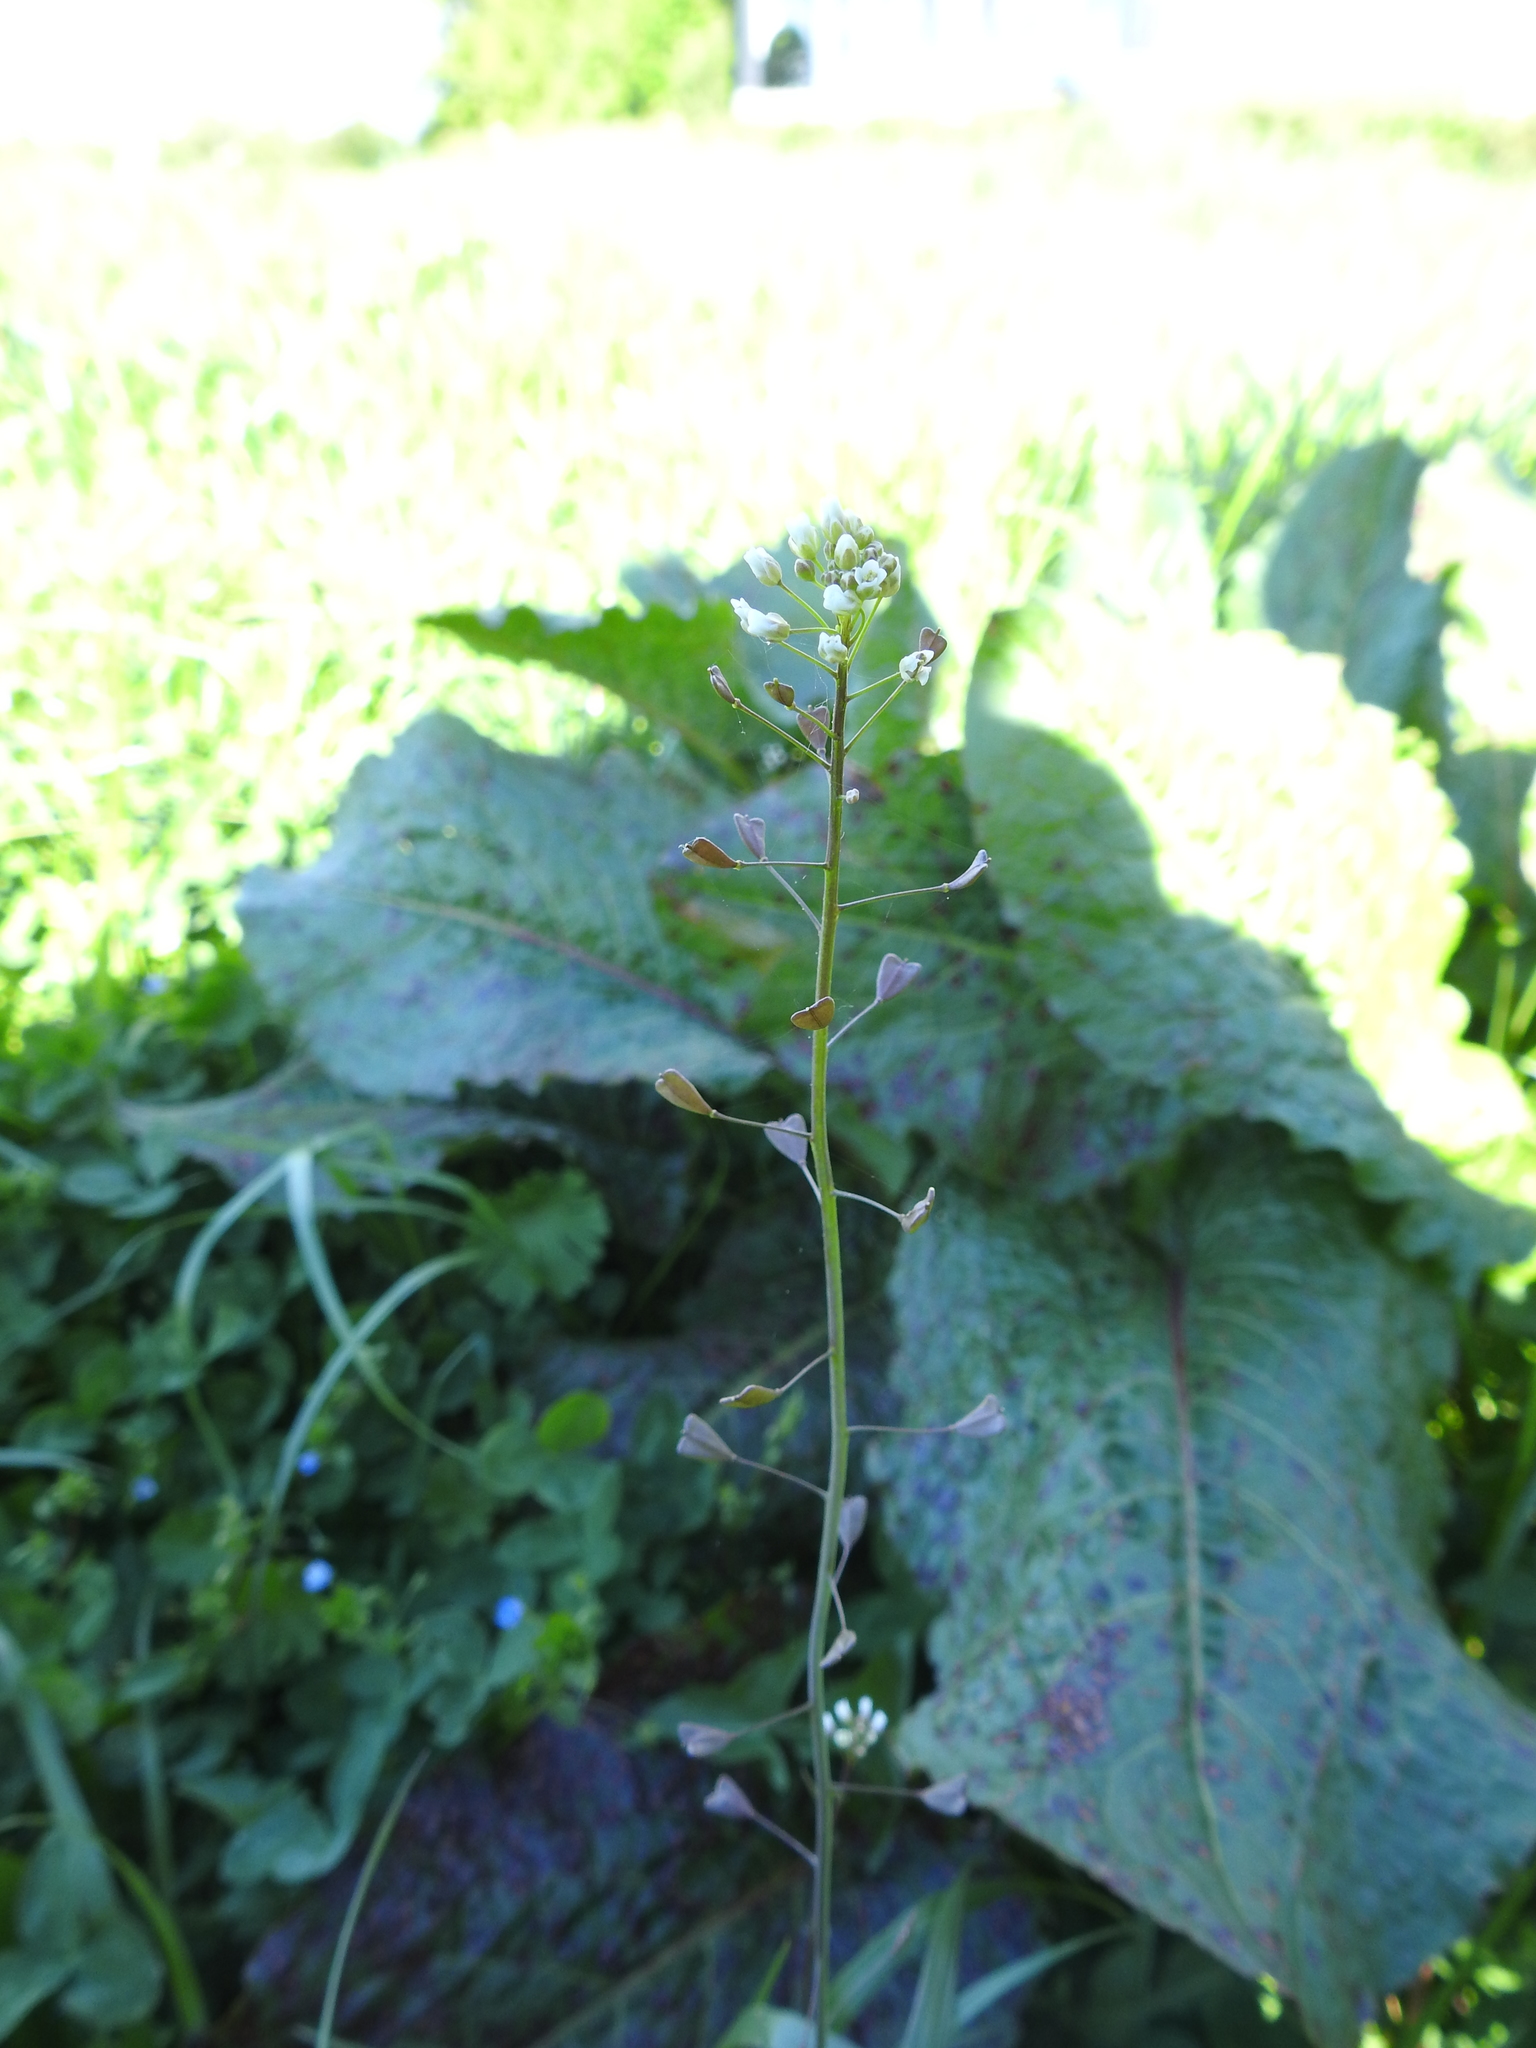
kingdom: Plantae
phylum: Tracheophyta
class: Magnoliopsida
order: Brassicales
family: Brassicaceae
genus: Capsella
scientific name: Capsella bursa-pastoris
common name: Shepherd's purse
